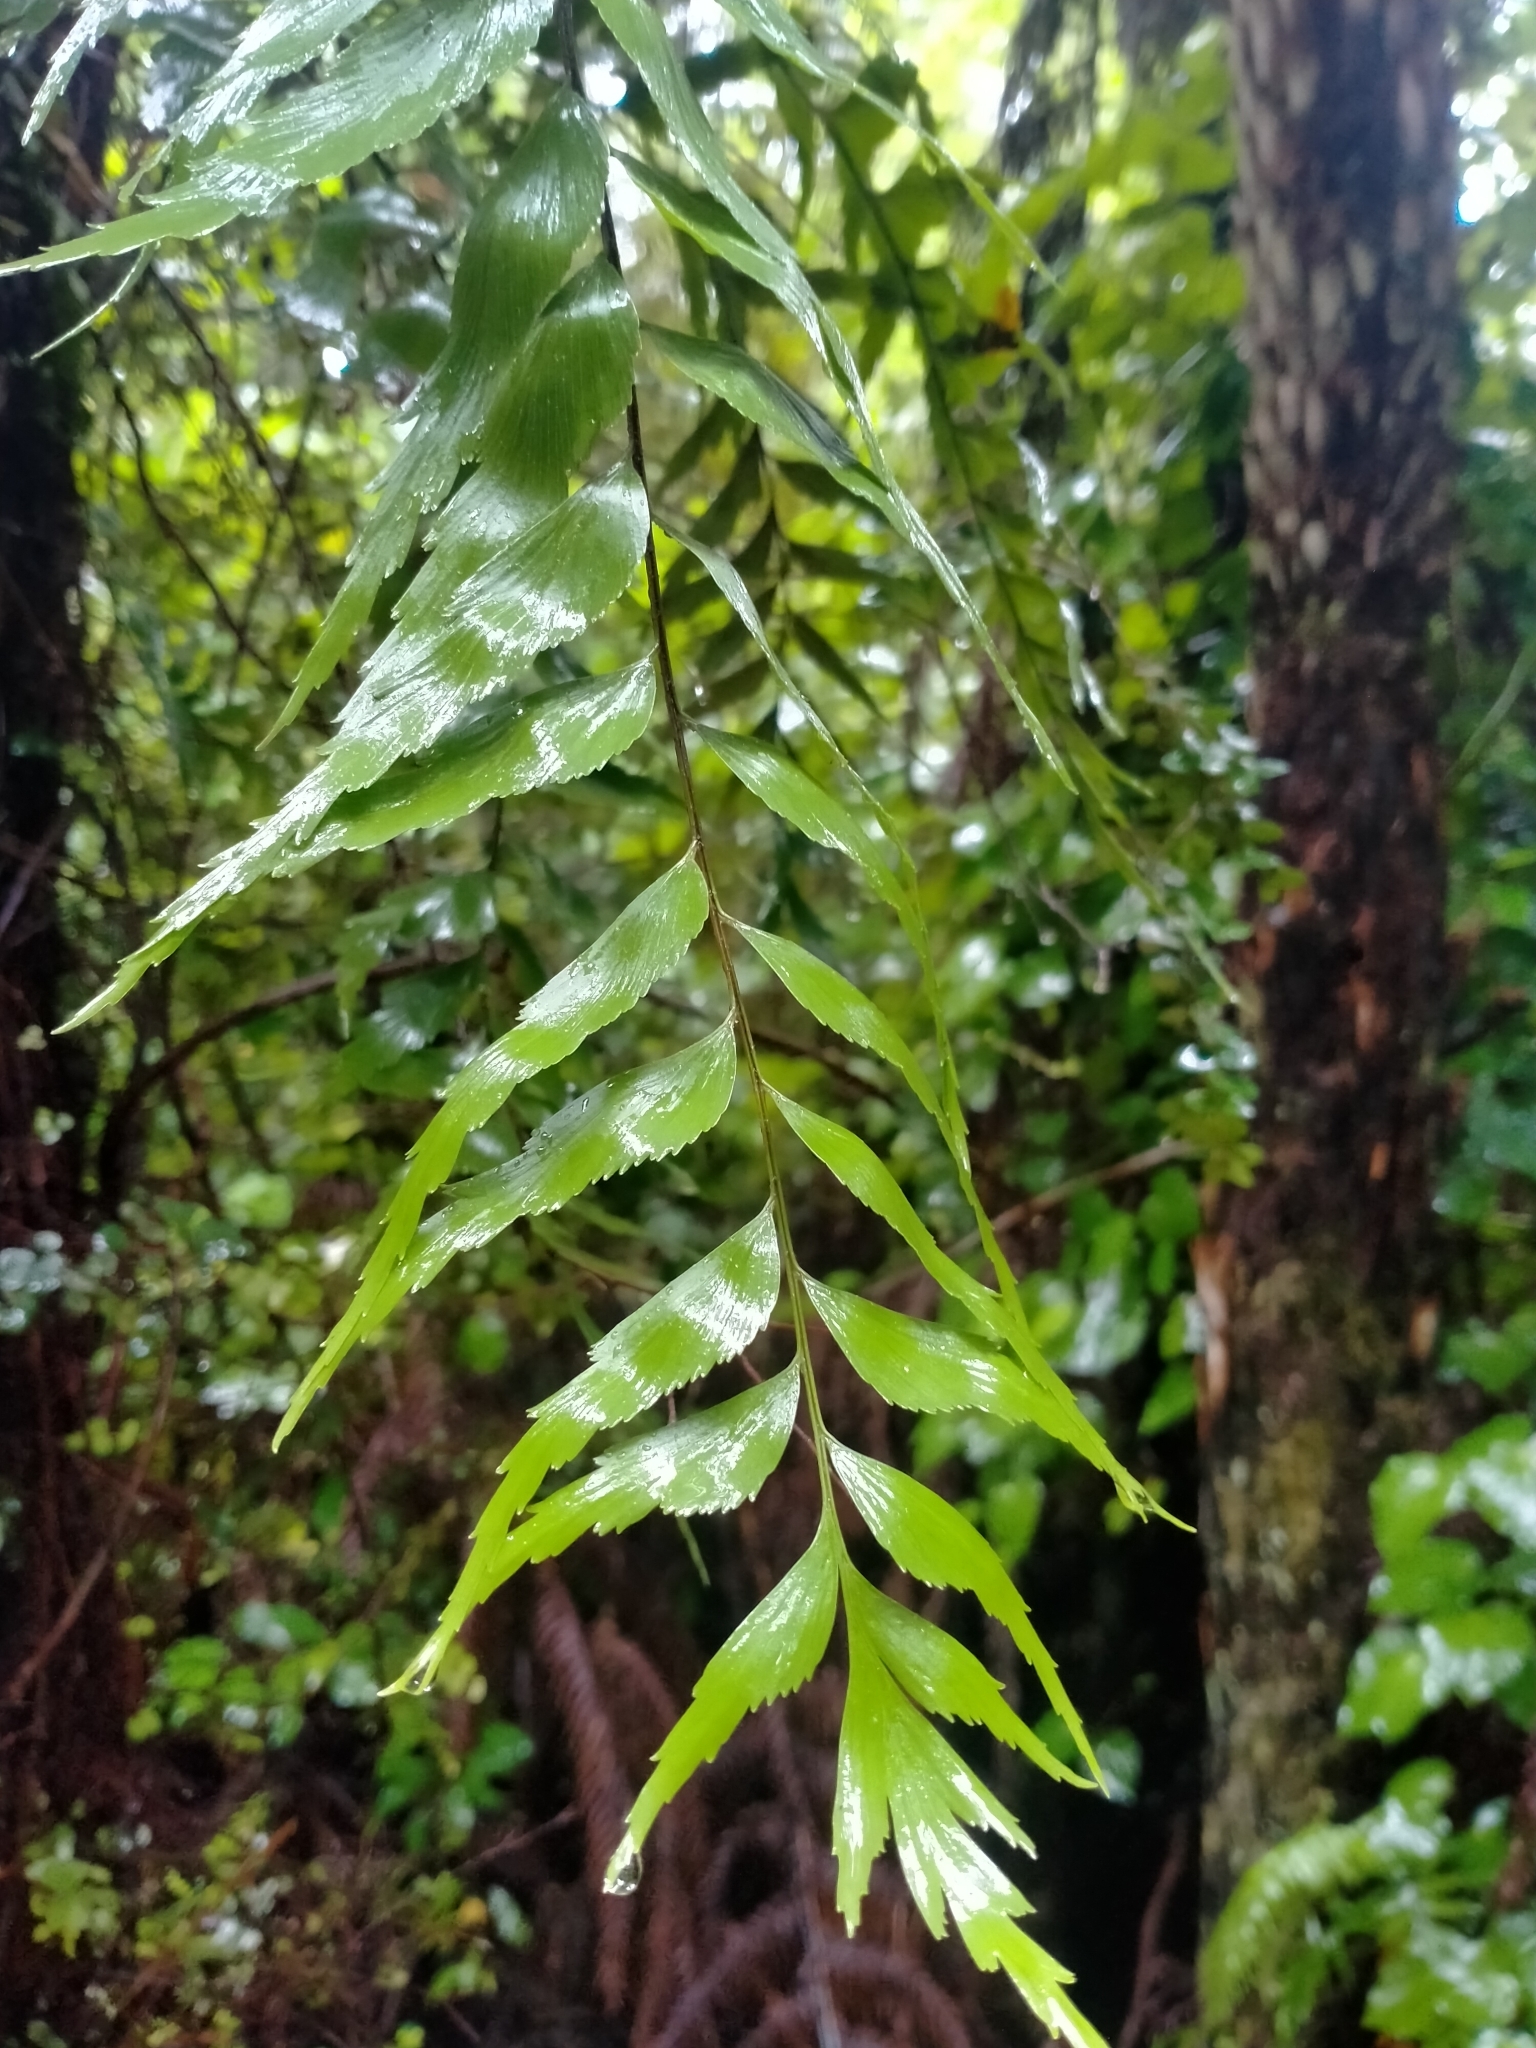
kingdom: Plantae
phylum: Tracheophyta
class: Polypodiopsida
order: Polypodiales
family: Aspleniaceae
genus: Asplenium
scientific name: Asplenium polyodon
